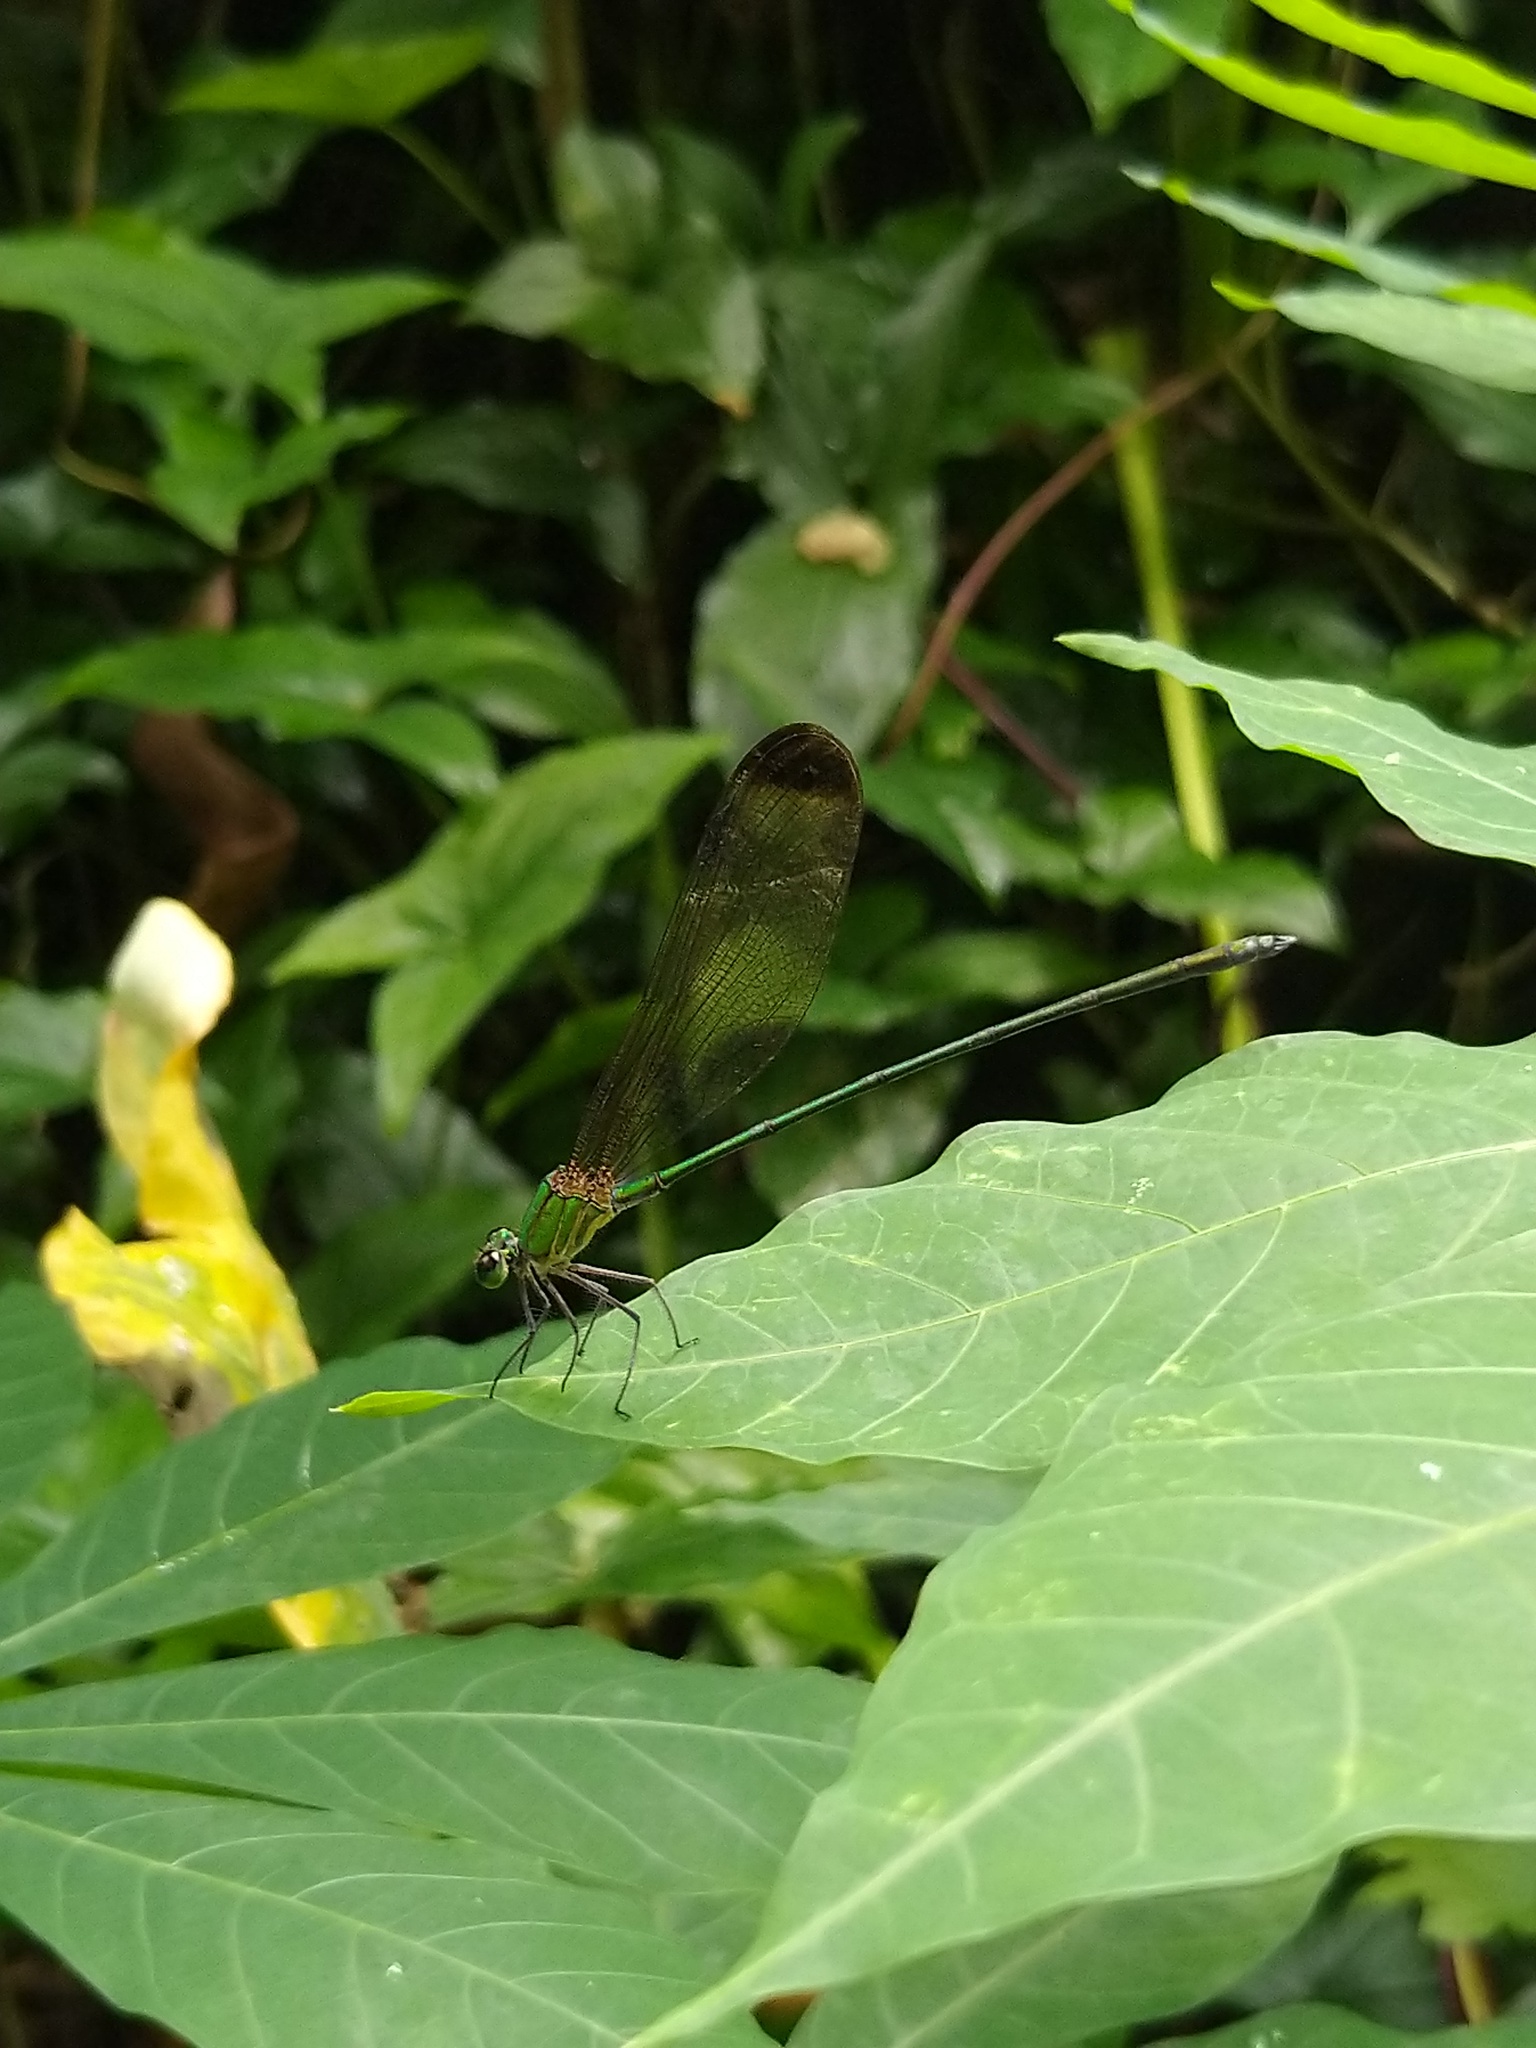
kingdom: Animalia
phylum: Arthropoda
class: Insecta
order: Odonata
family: Calopterygidae
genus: Vestalis
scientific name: Vestalis apicalis
